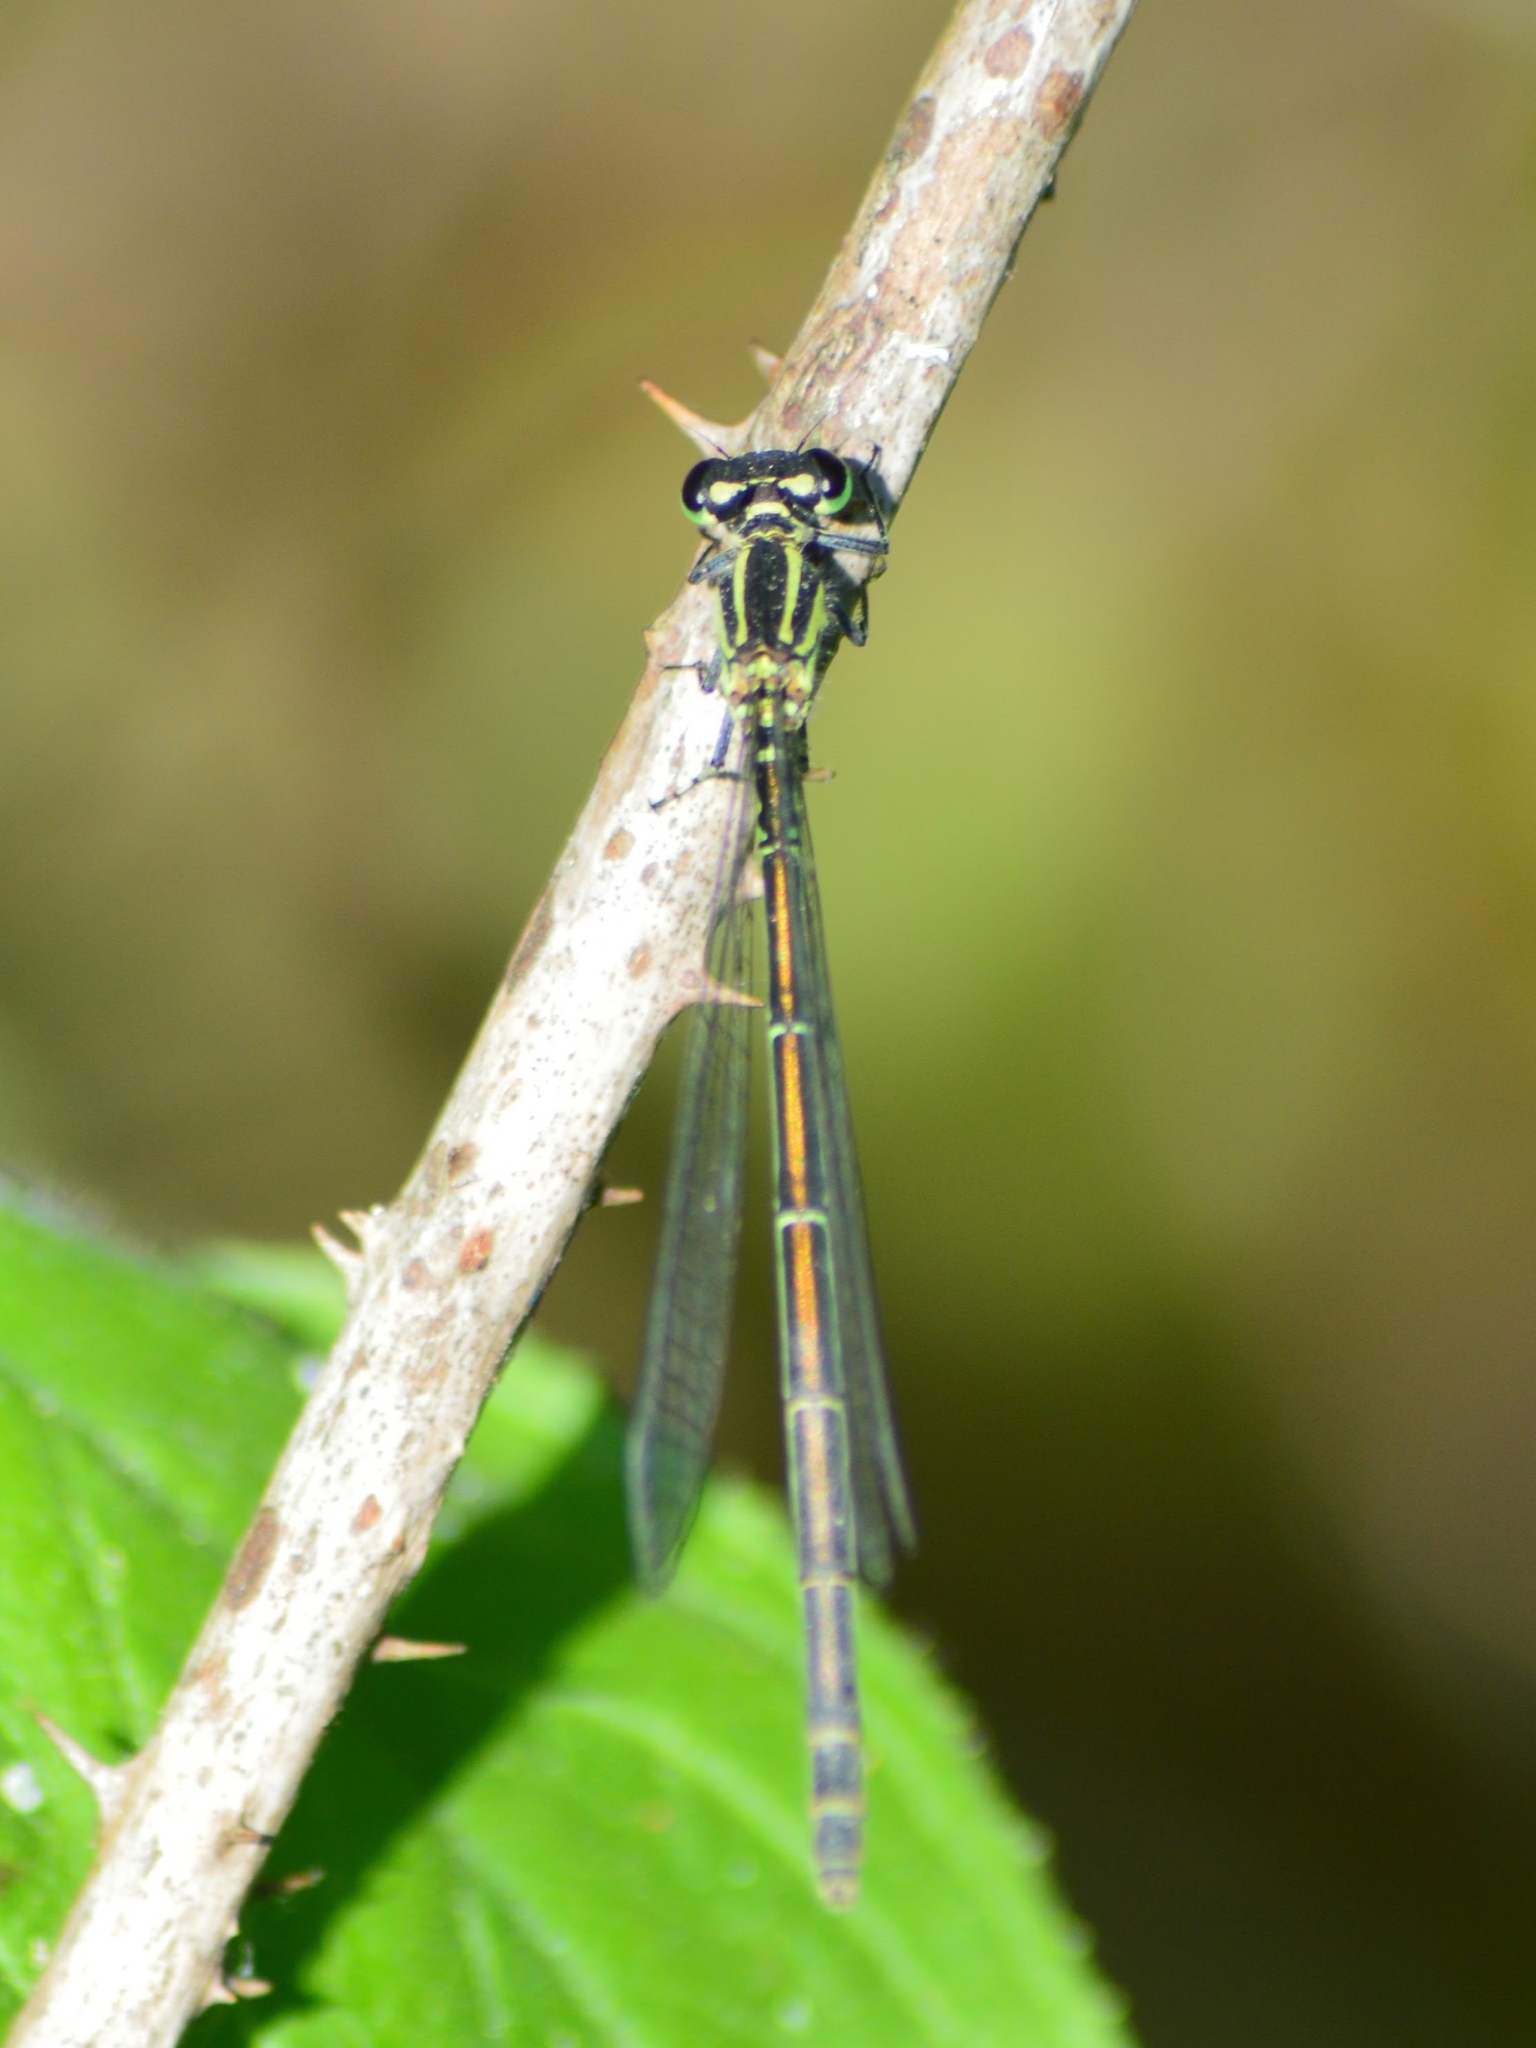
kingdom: Animalia
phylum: Arthropoda
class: Insecta
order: Odonata
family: Coenagrionidae
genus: Coenagrion
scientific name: Coenagrion puella
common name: Azure damselfly
